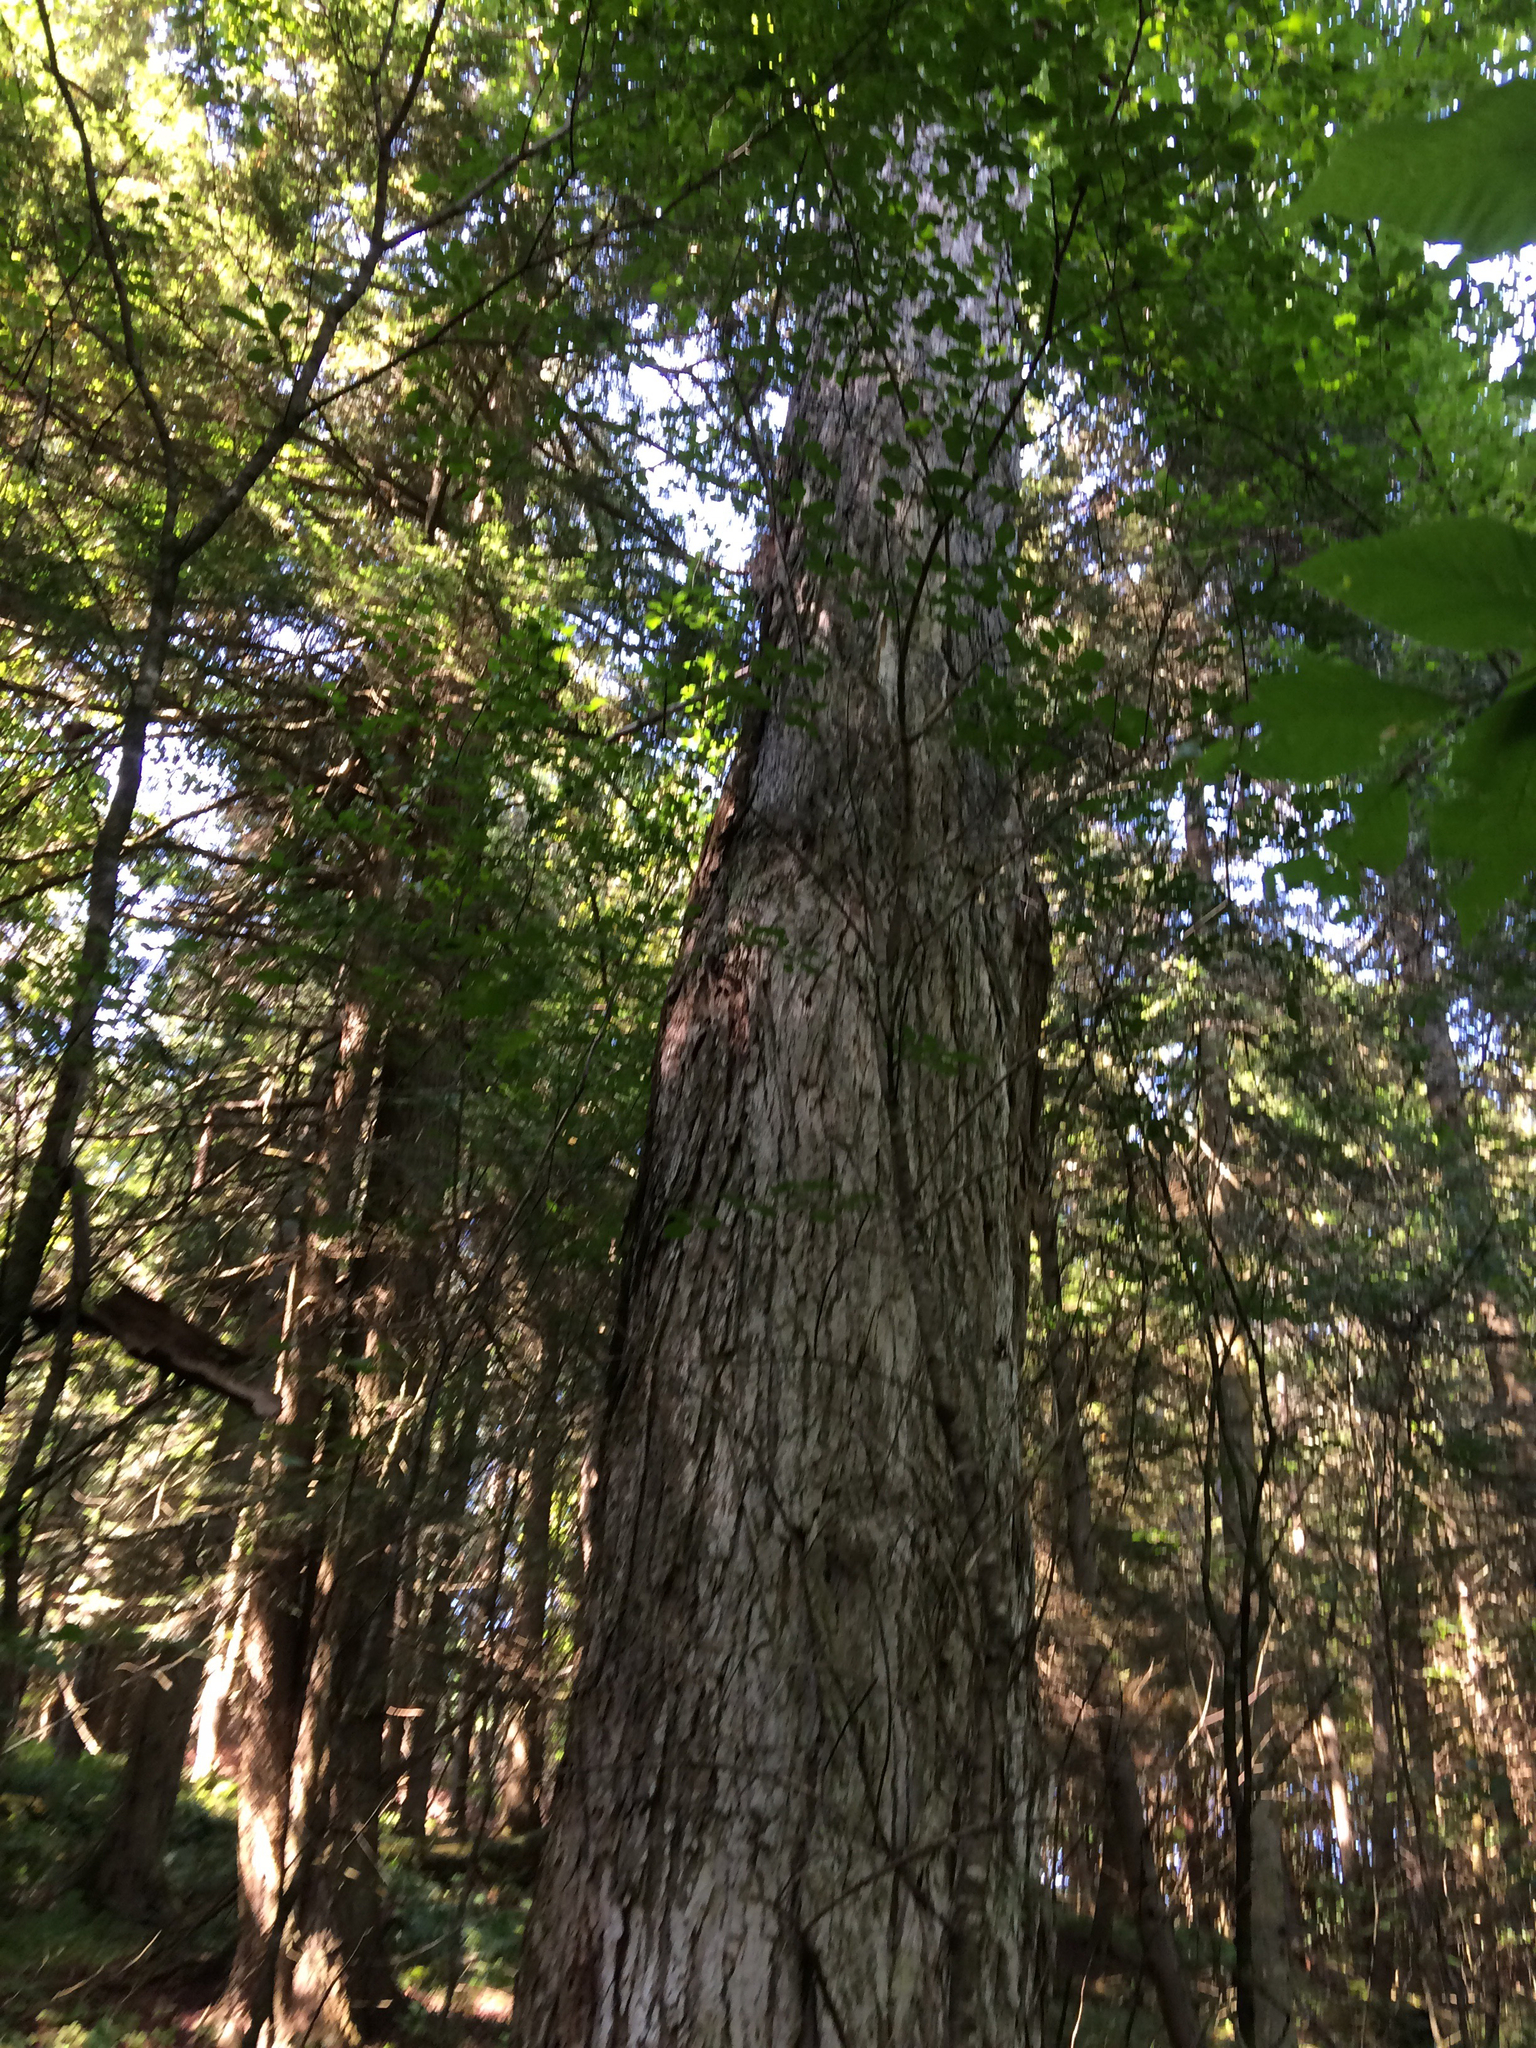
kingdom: Plantae
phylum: Tracheophyta
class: Magnoliopsida
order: Sapindales
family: Sapindaceae
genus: Acer
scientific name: Acer saccharum
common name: Sugar maple
